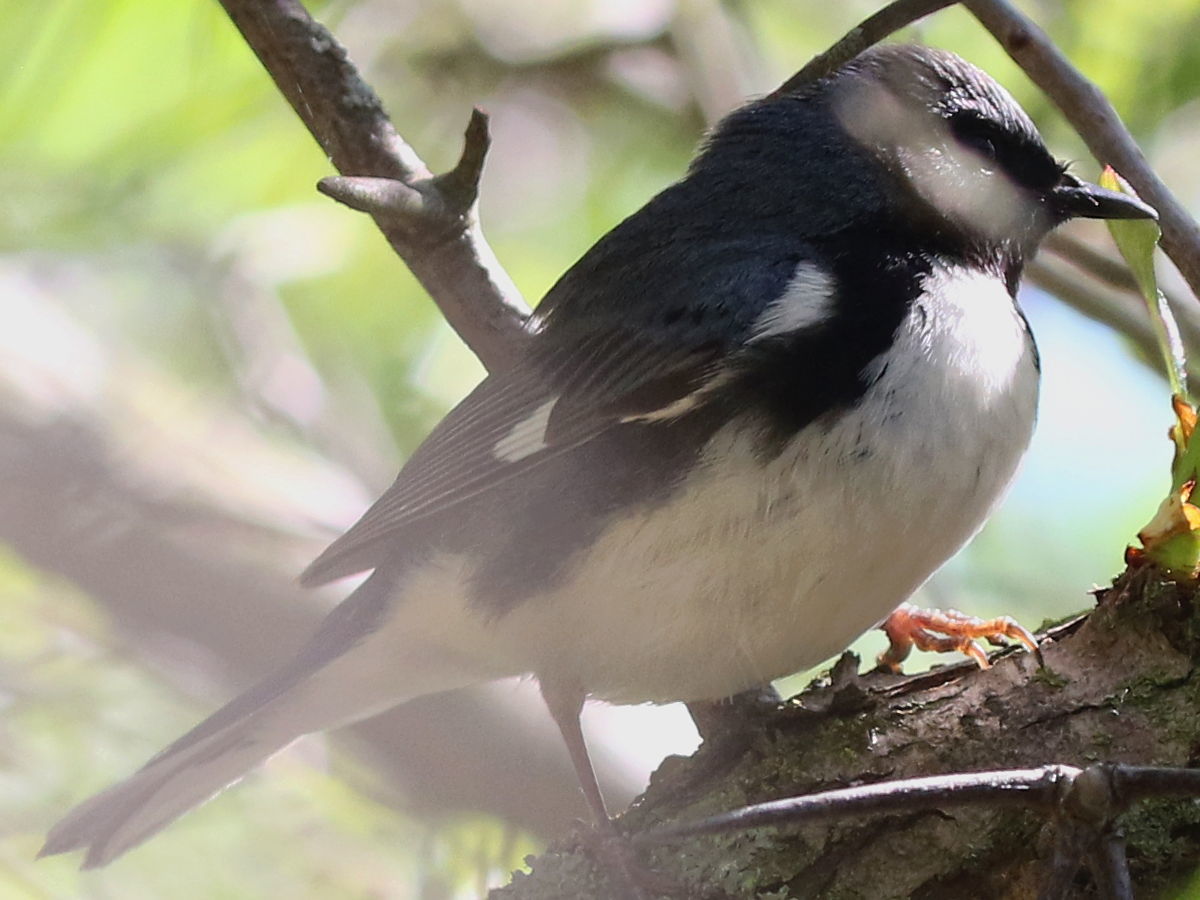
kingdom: Animalia
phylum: Chordata
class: Aves
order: Passeriformes
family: Parulidae
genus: Setophaga
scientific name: Setophaga caerulescens
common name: Black-throated blue warbler
